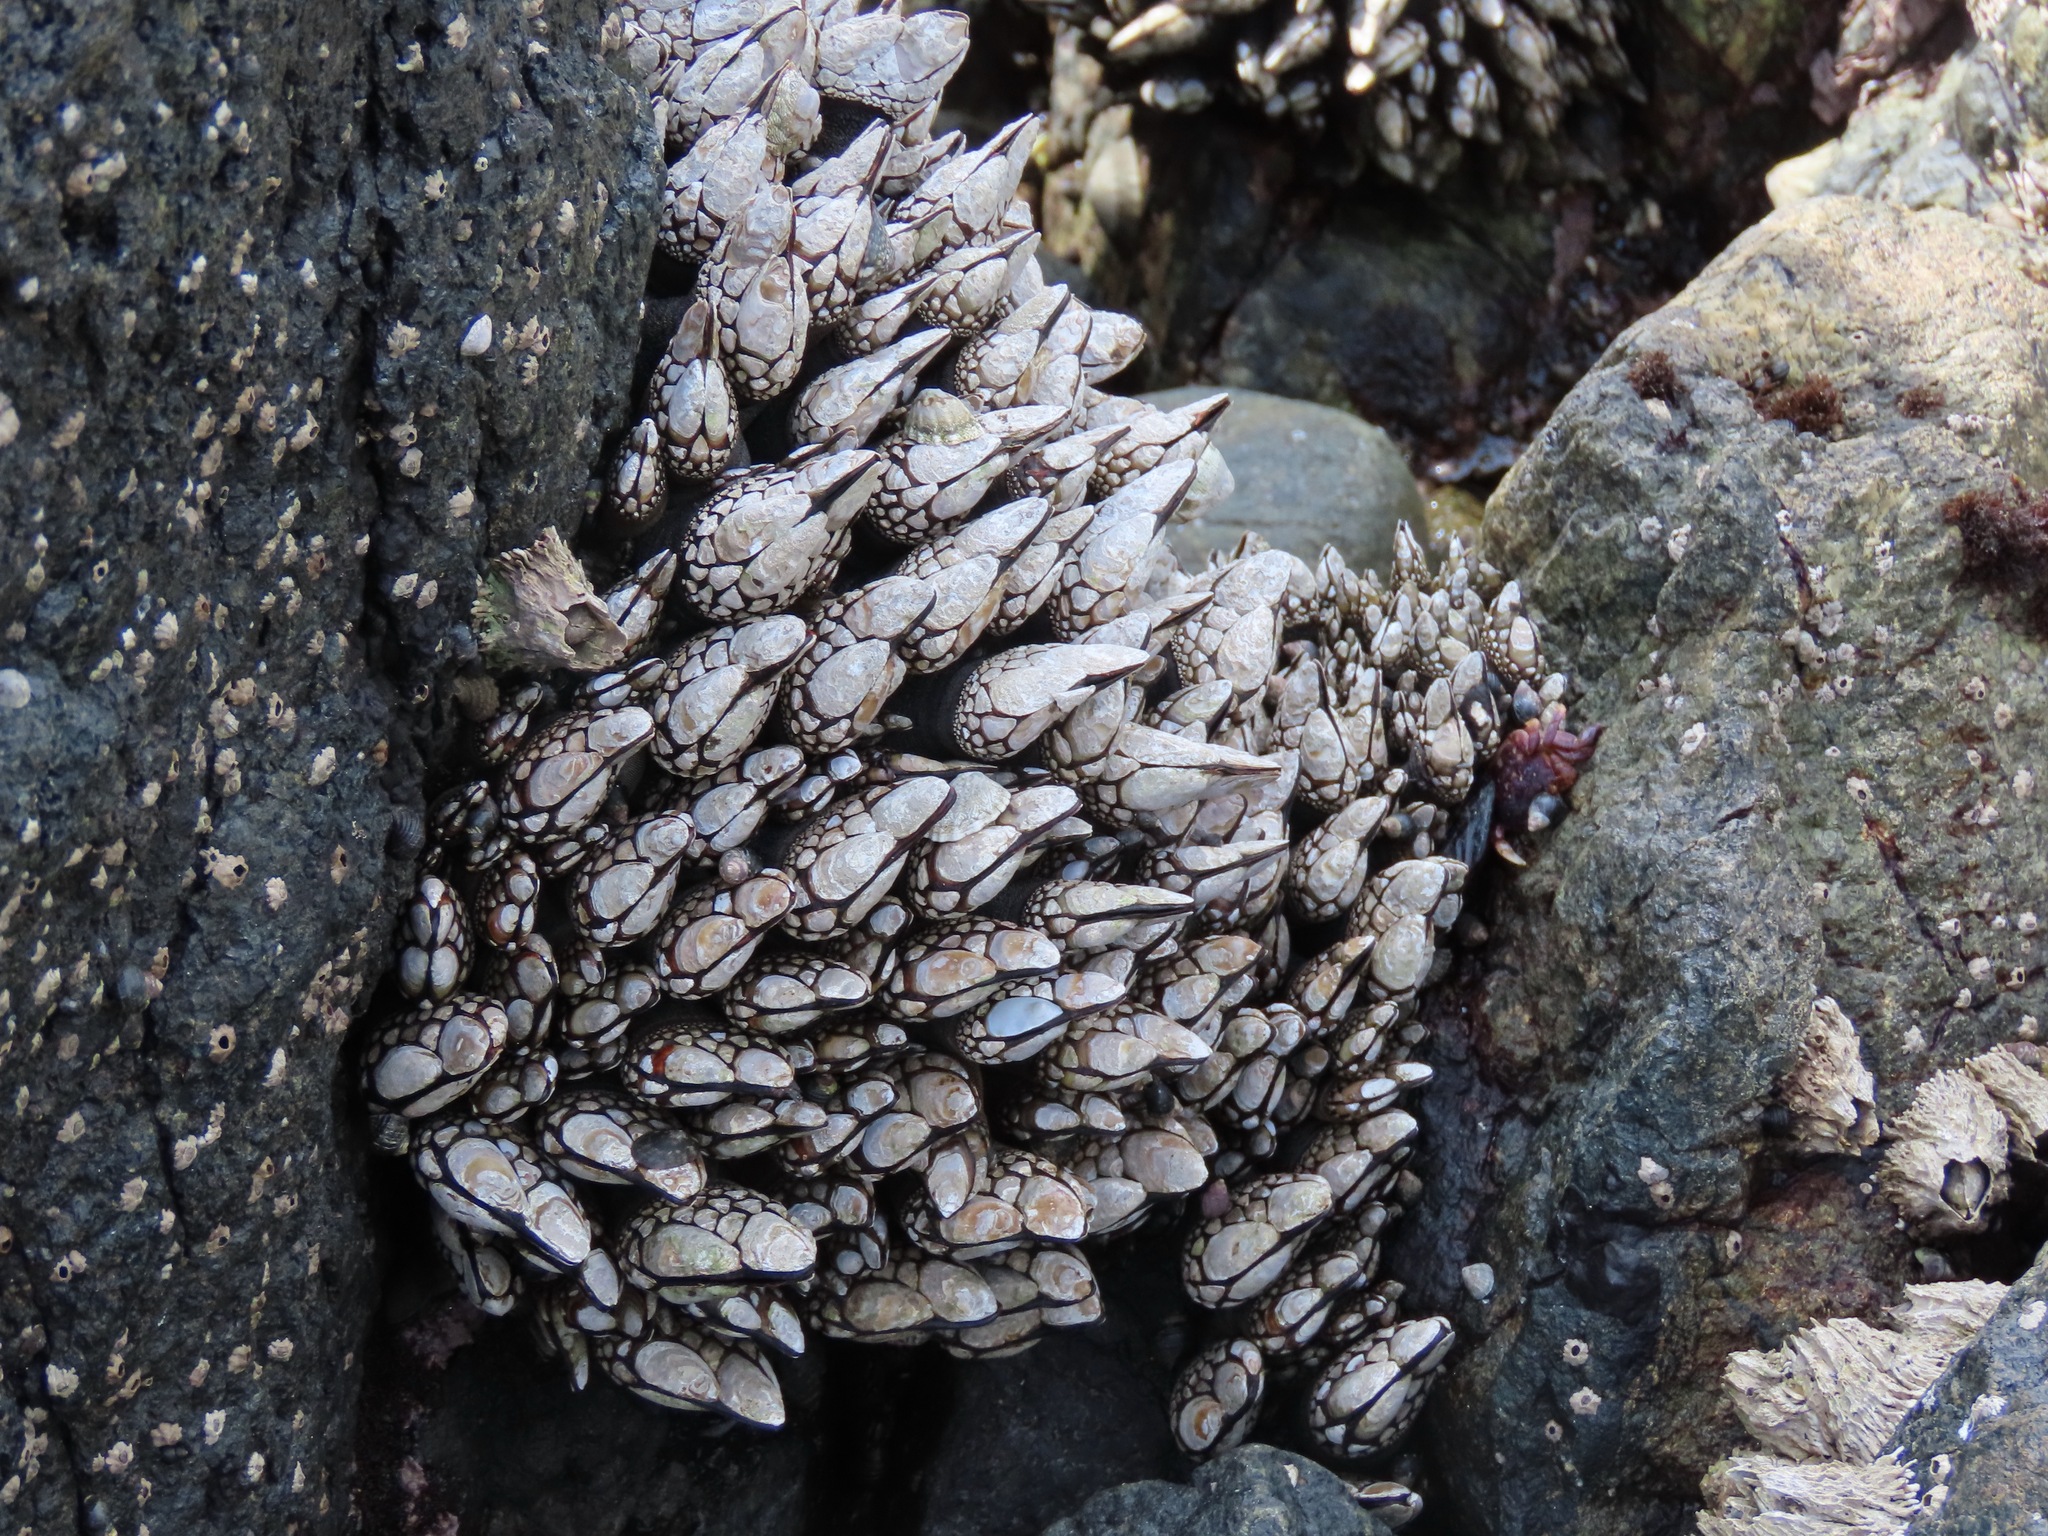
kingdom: Animalia
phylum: Arthropoda
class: Maxillopoda
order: Pedunculata
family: Pollicipedidae
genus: Pollicipes
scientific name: Pollicipes polymerus
